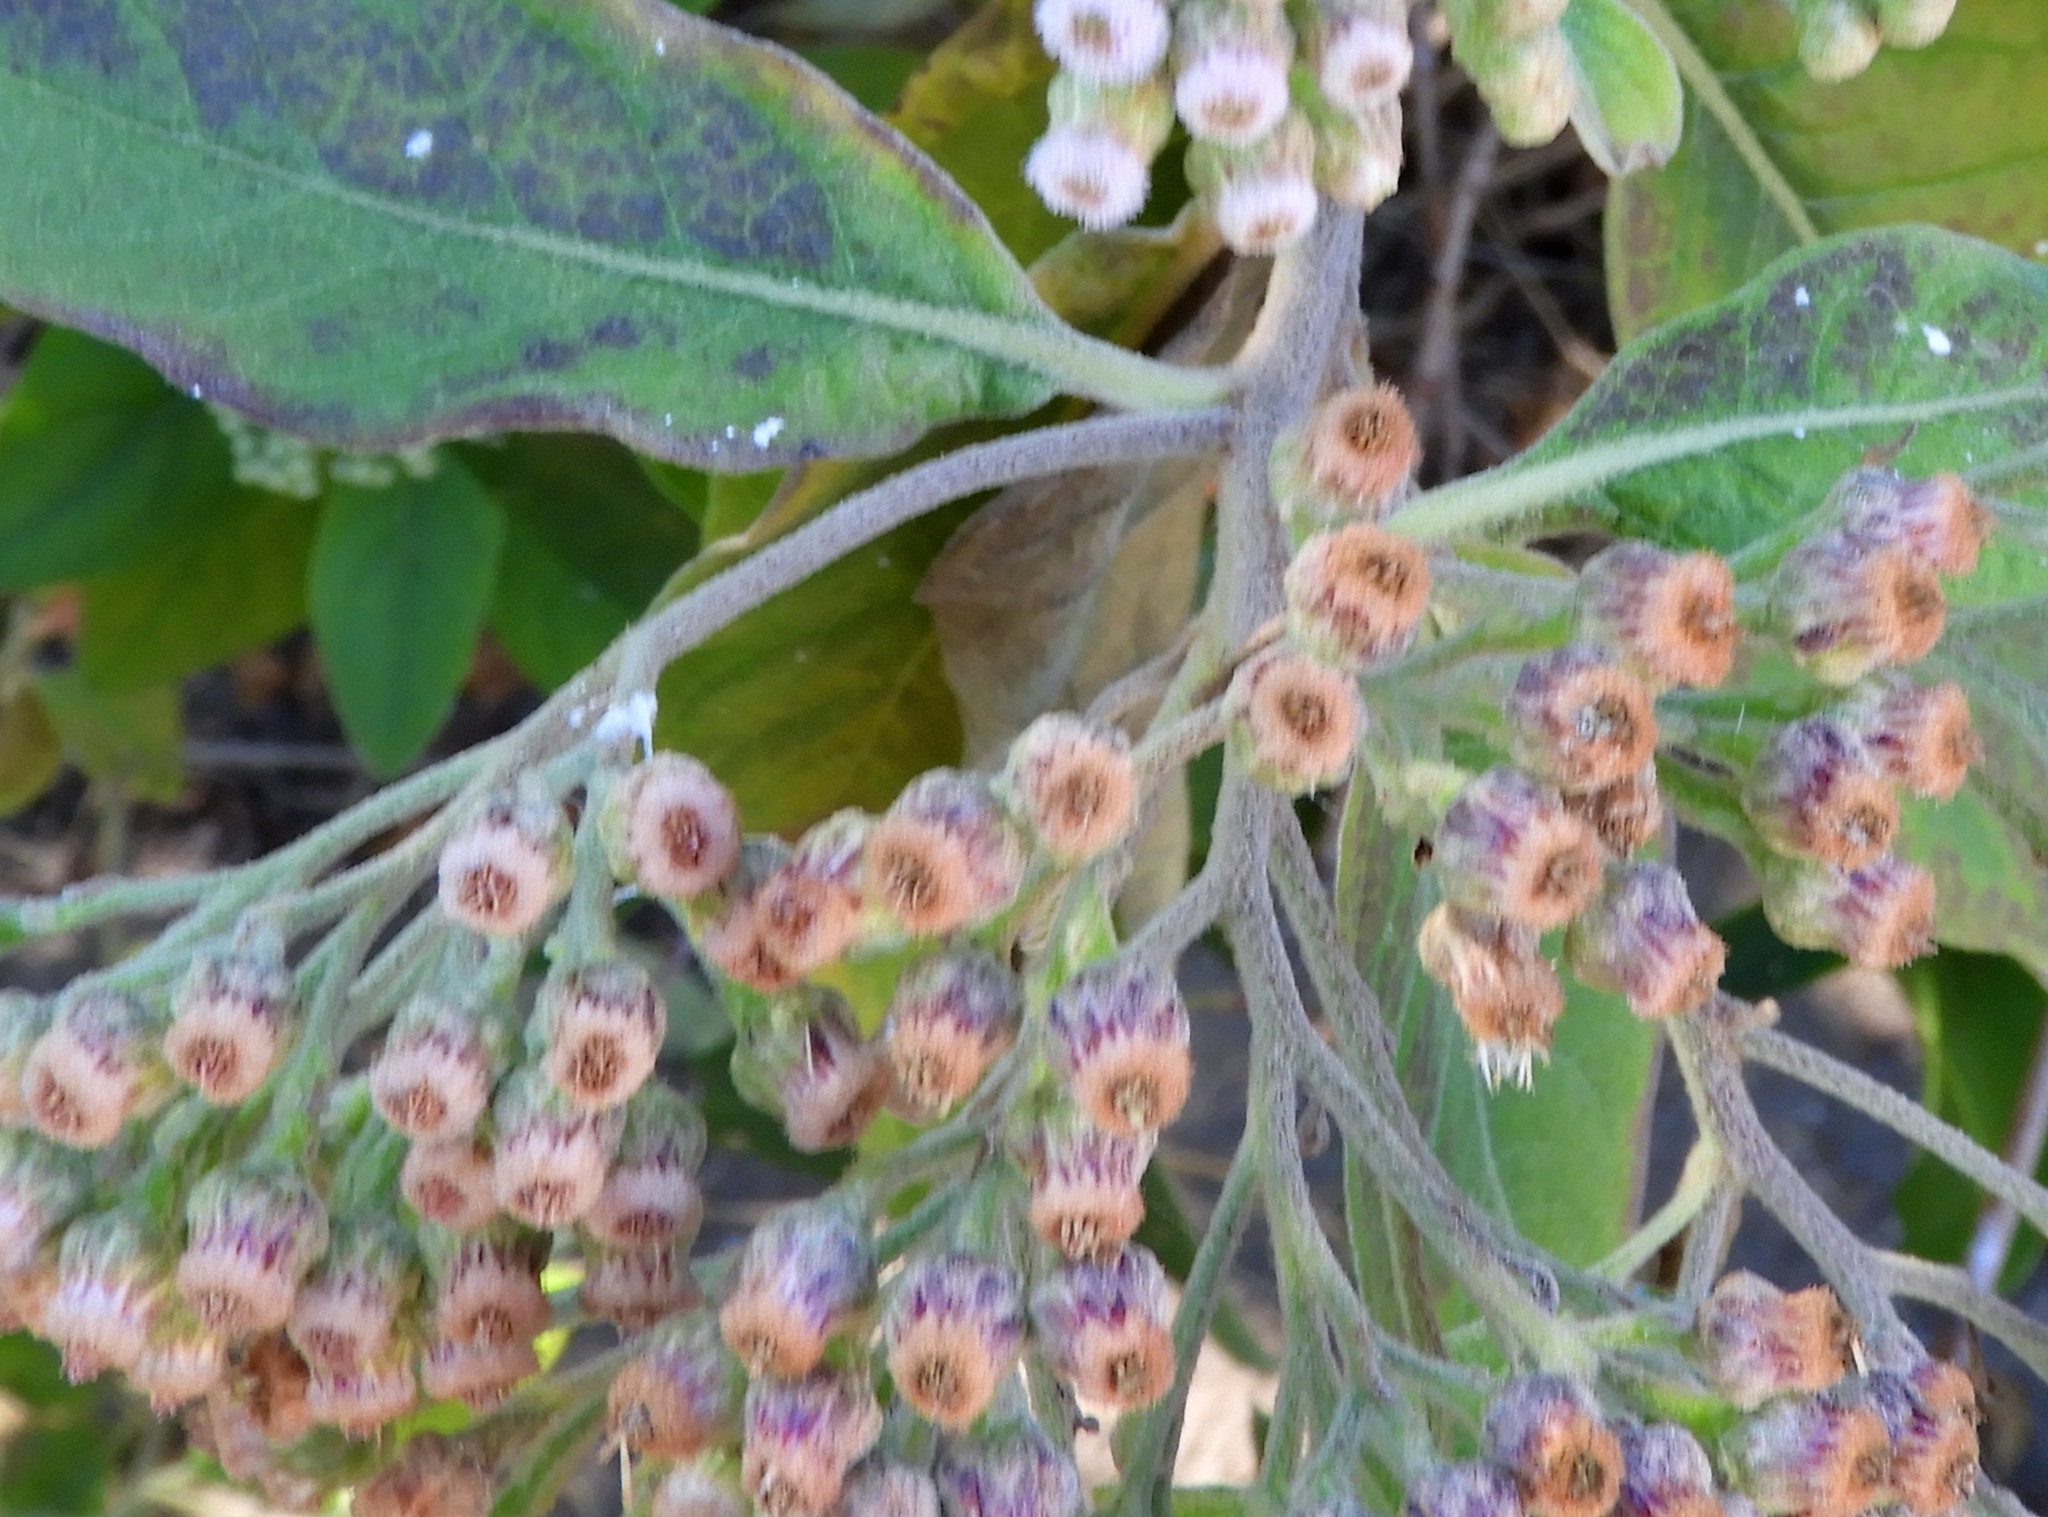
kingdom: Plantae
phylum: Tracheophyta
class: Magnoliopsida
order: Asterales
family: Asteraceae
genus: Pluchea
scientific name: Pluchea carolinensis
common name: Marsh fleabane
